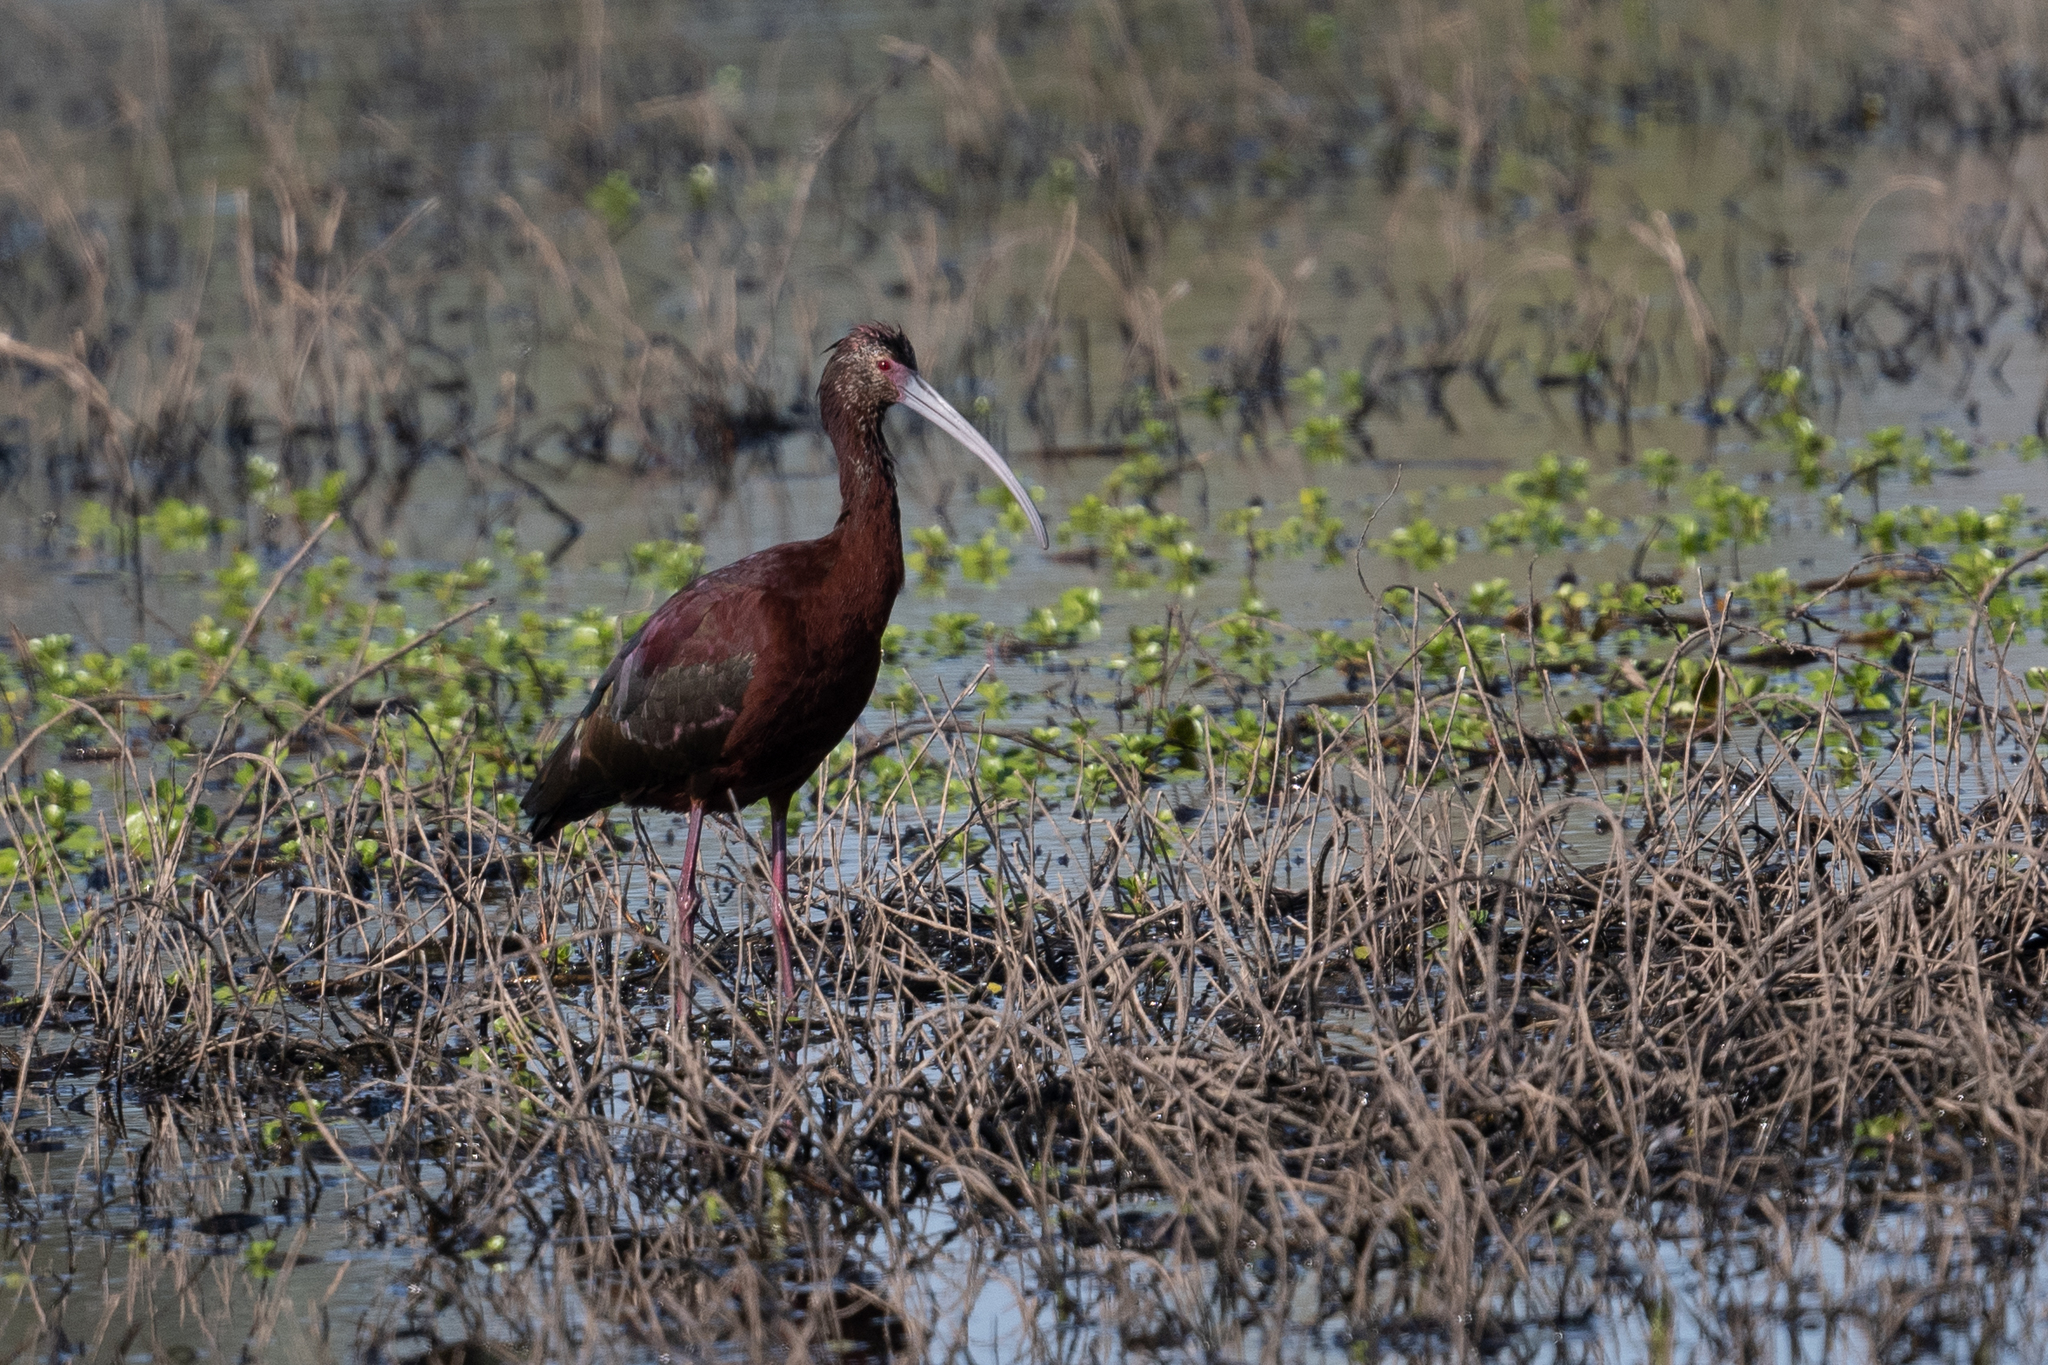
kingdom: Animalia
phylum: Chordata
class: Aves
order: Pelecaniformes
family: Threskiornithidae
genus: Plegadis
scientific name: Plegadis chihi
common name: White-faced ibis
